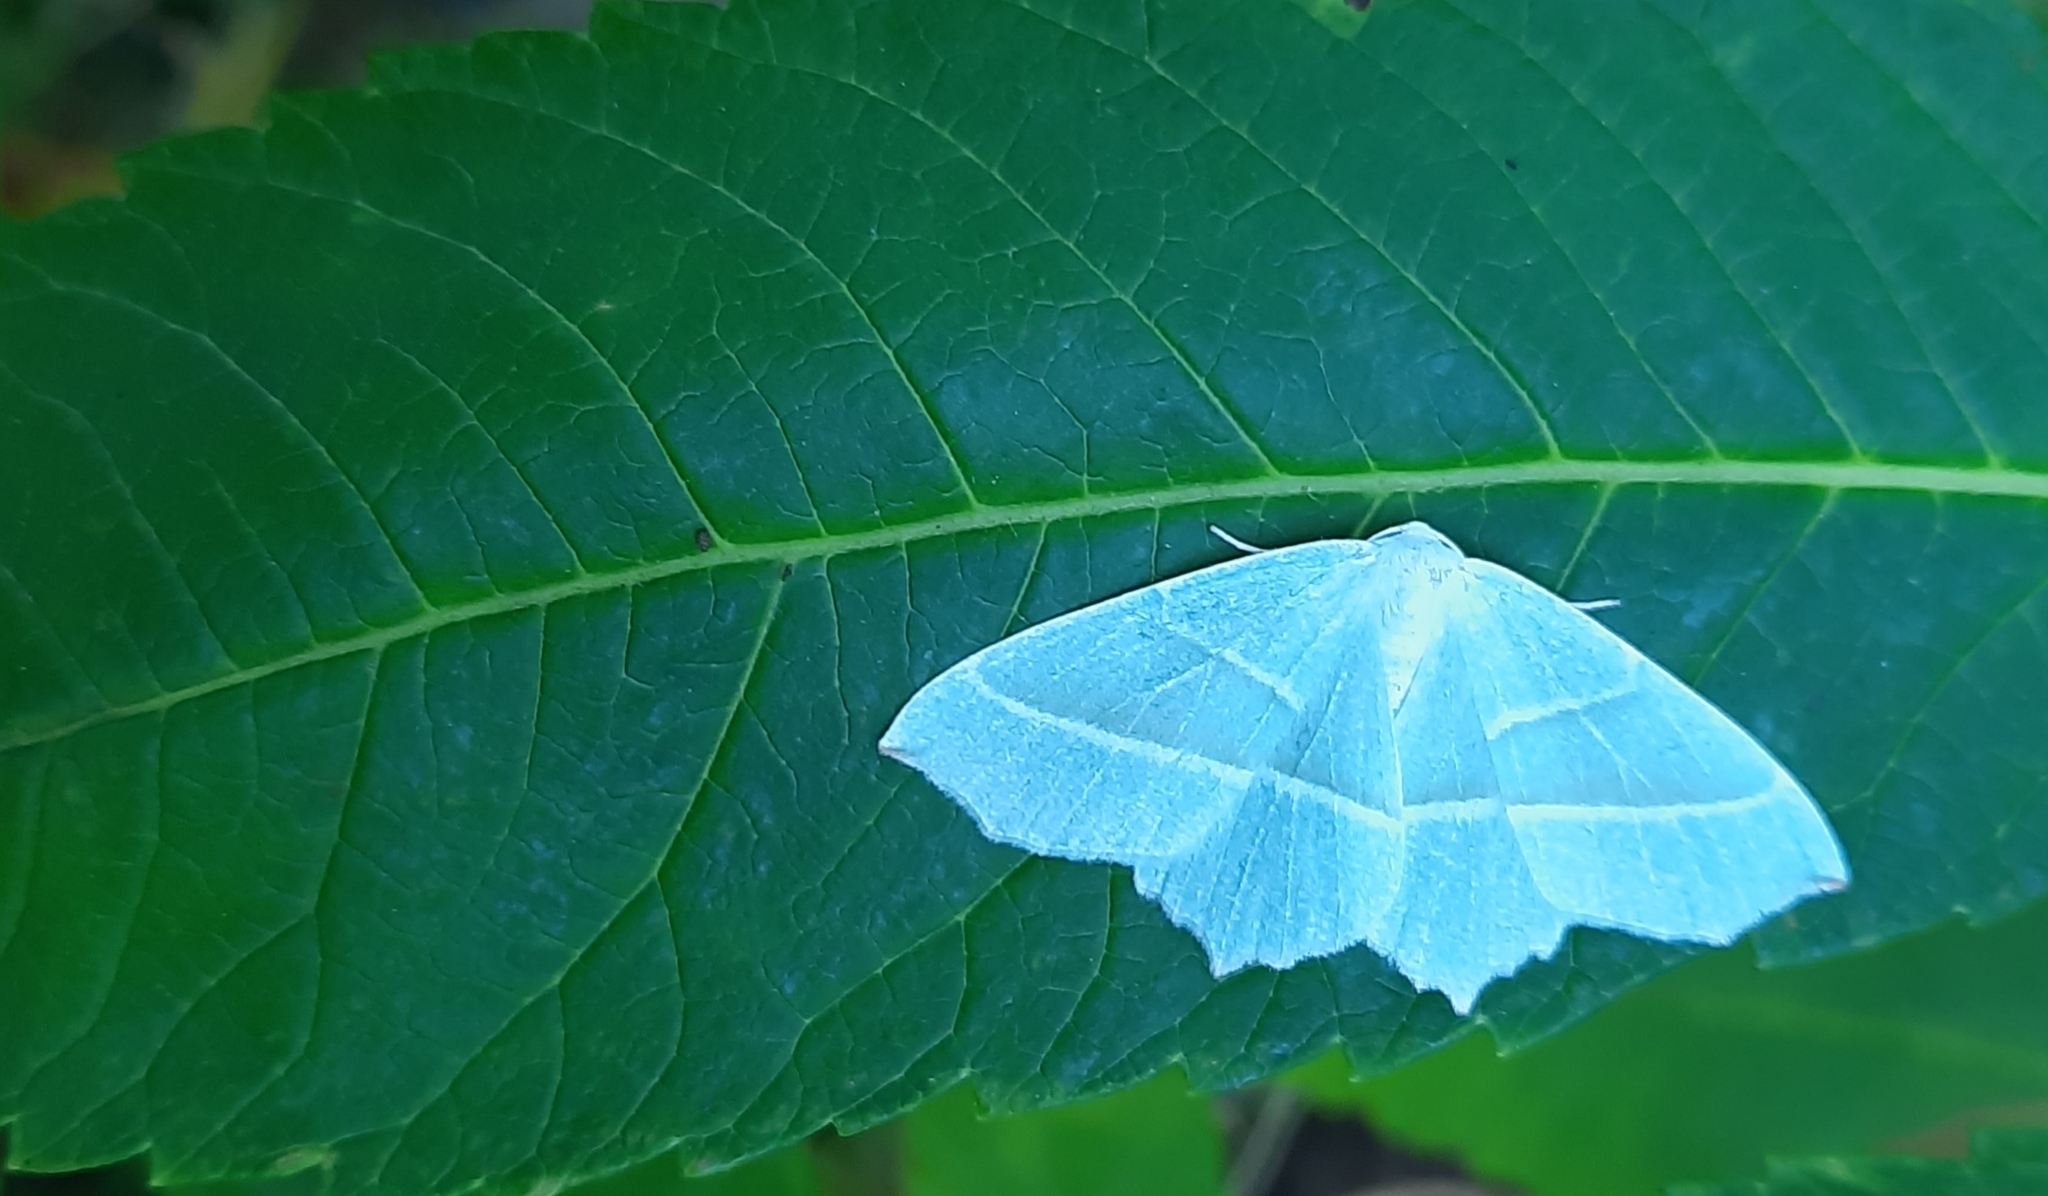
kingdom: Animalia
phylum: Arthropoda
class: Insecta
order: Lepidoptera
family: Geometridae
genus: Campaea
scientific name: Campaea margaritaria
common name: Light emerald
